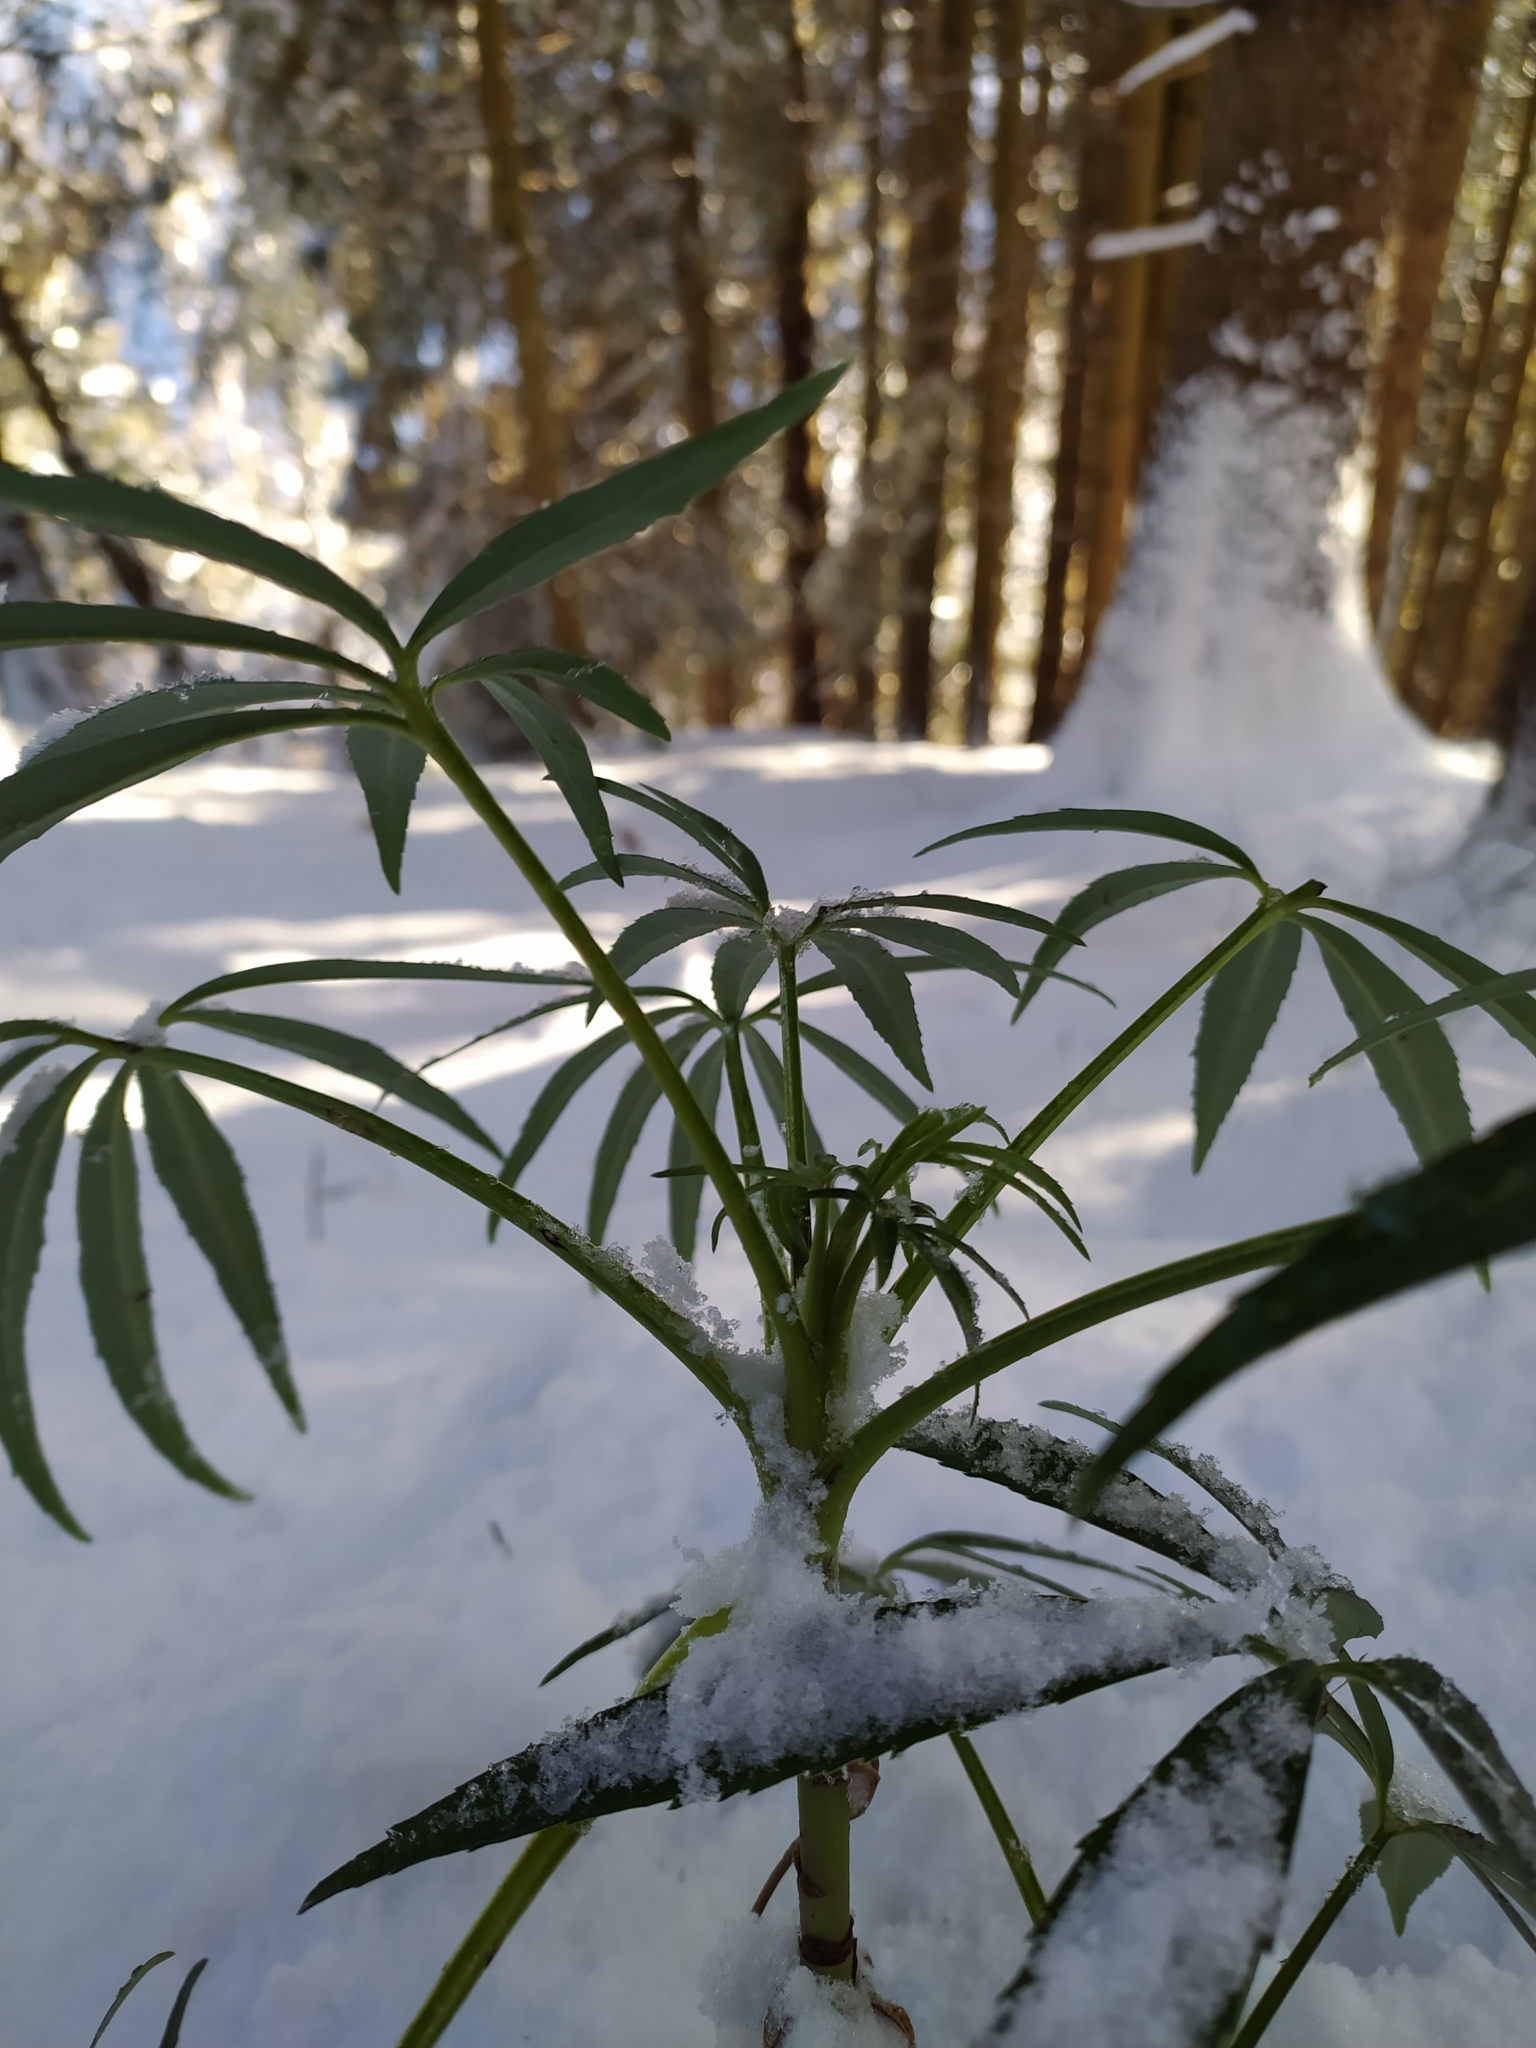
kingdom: Plantae
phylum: Tracheophyta
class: Magnoliopsida
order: Ranunculales
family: Ranunculaceae
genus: Helleborus
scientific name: Helleborus foetidus
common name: Stinking hellebore
